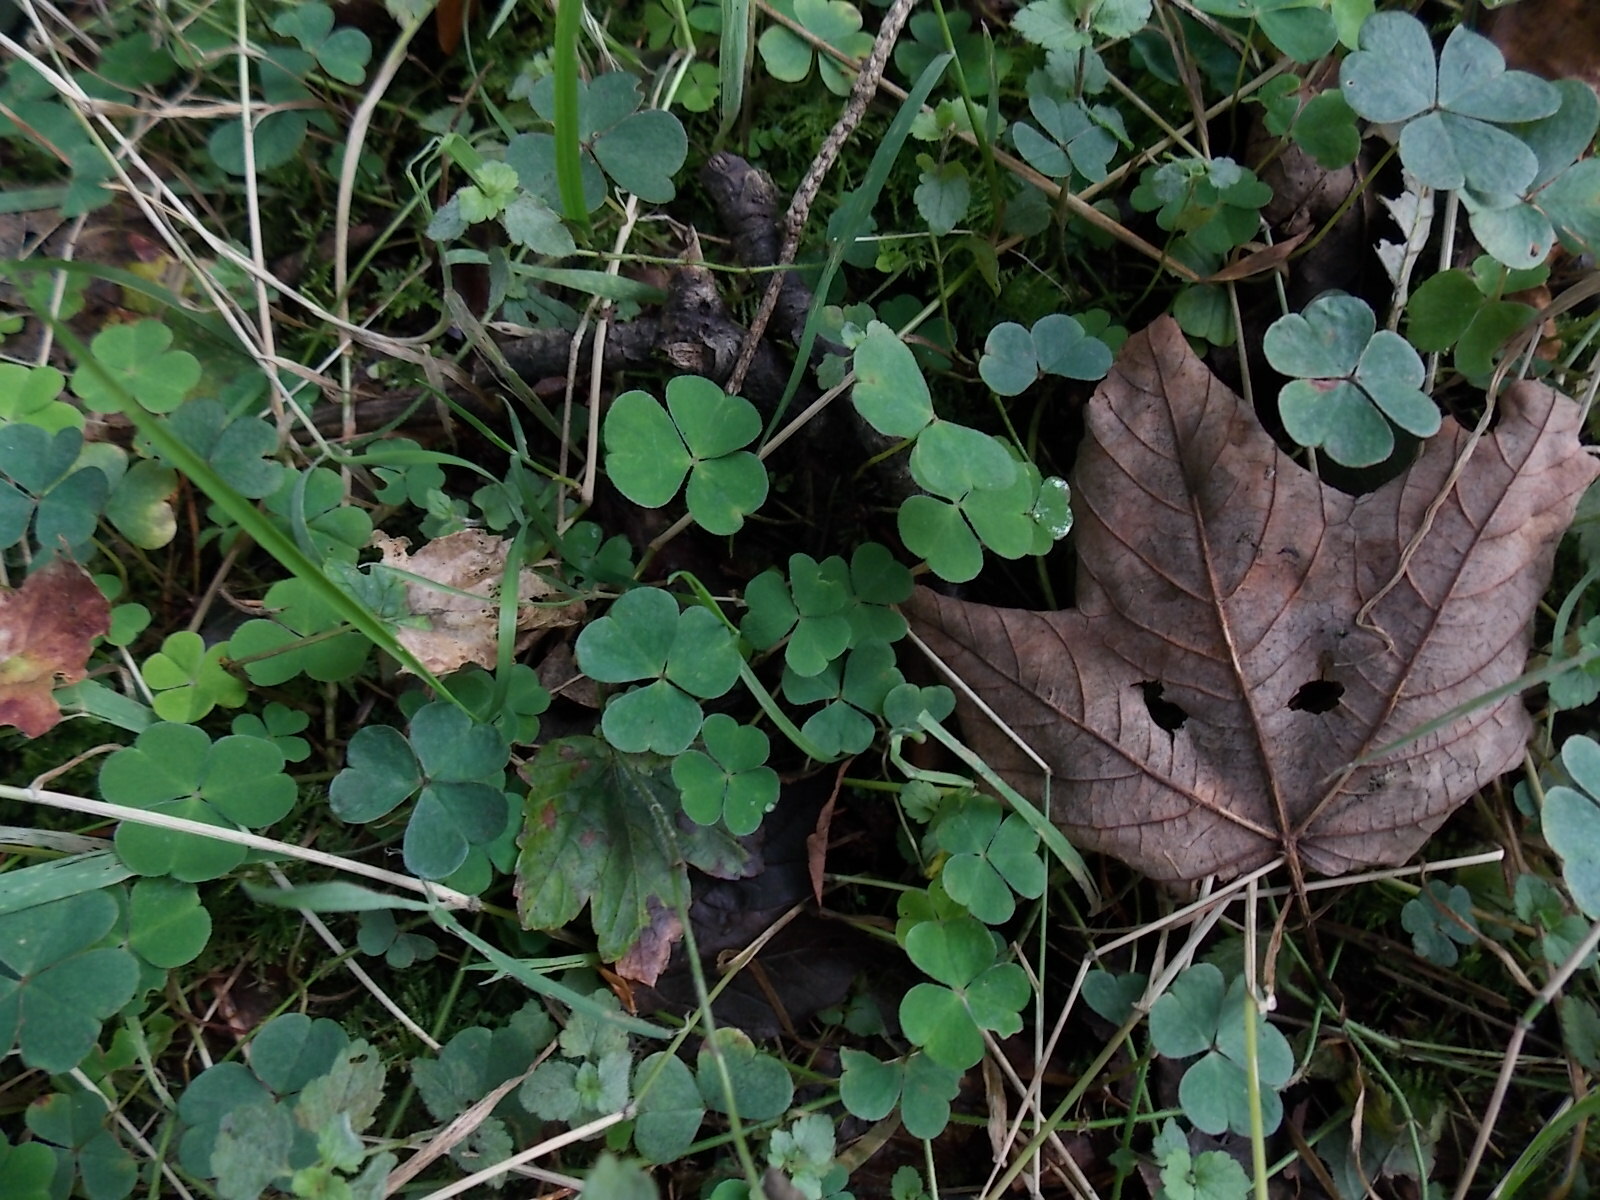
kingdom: Plantae
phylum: Tracheophyta
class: Magnoliopsida
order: Oxalidales
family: Oxalidaceae
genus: Oxalis
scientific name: Oxalis acetosella
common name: Wood-sorrel
